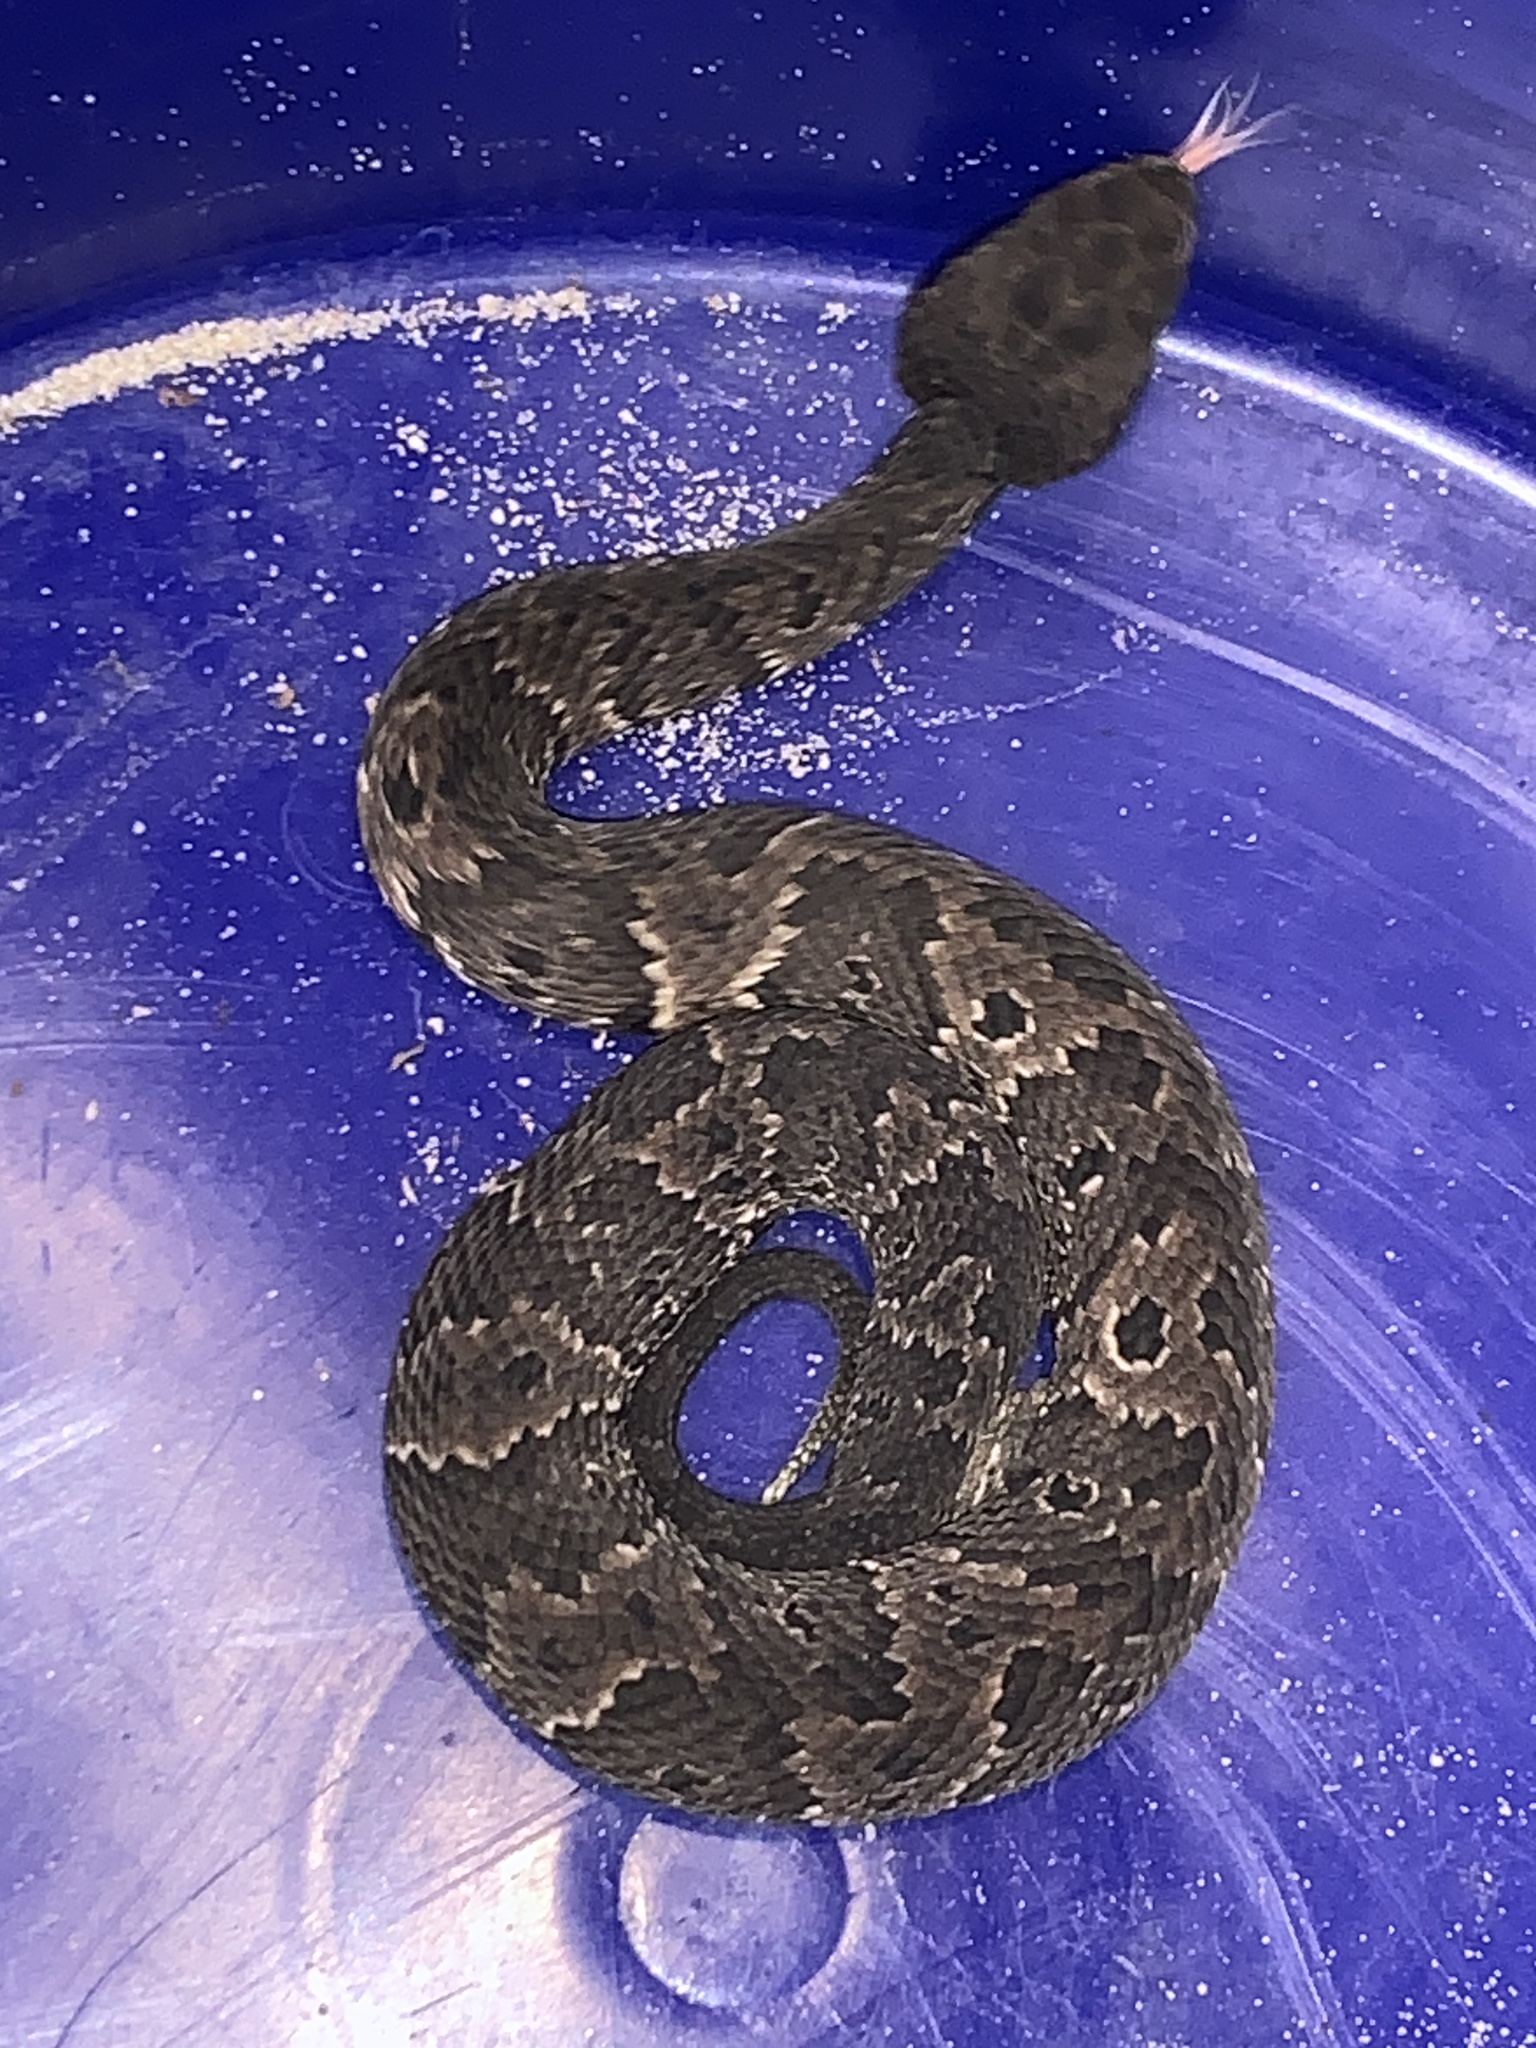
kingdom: Animalia
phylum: Chordata
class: Squamata
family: Viperidae
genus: Agkistrodon
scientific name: Agkistrodon piscivorus
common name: Cottonmouth
